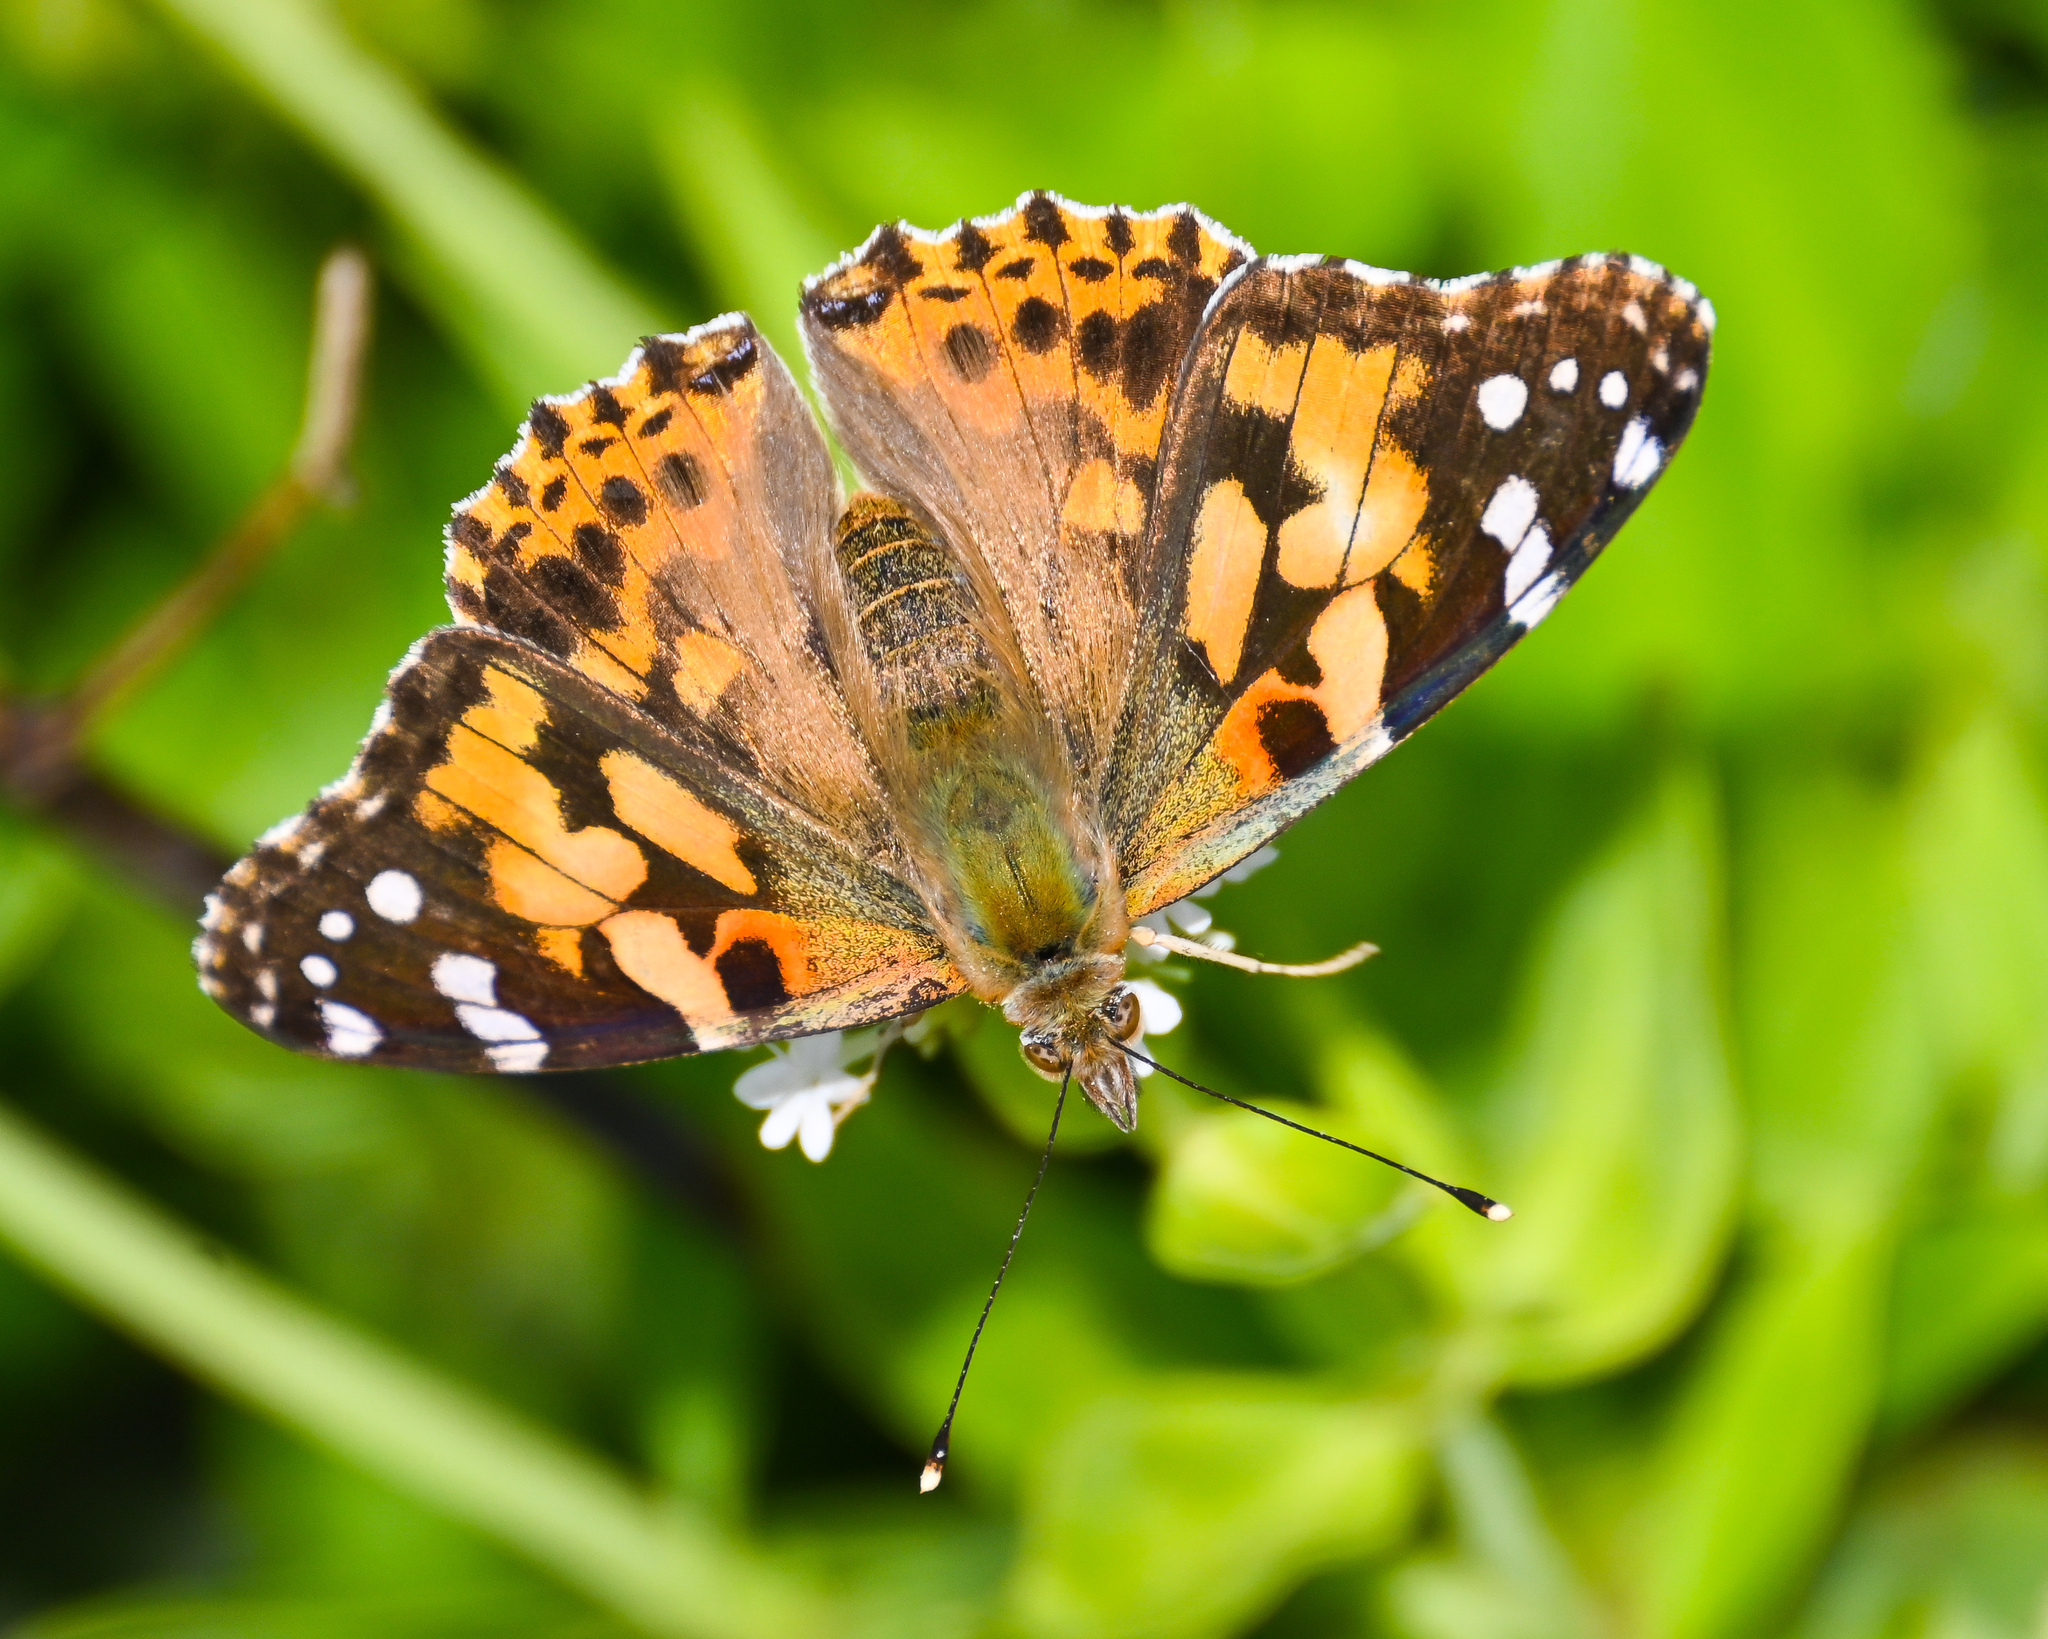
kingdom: Animalia
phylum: Arthropoda
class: Insecta
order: Lepidoptera
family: Nymphalidae
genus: Vanessa
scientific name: Vanessa cardui
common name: Painted lady
